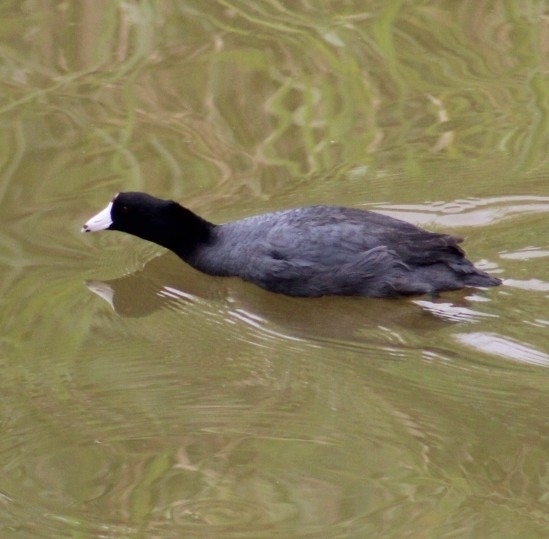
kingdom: Animalia
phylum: Chordata
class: Aves
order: Gruiformes
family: Rallidae
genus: Fulica
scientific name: Fulica americana
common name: American coot
